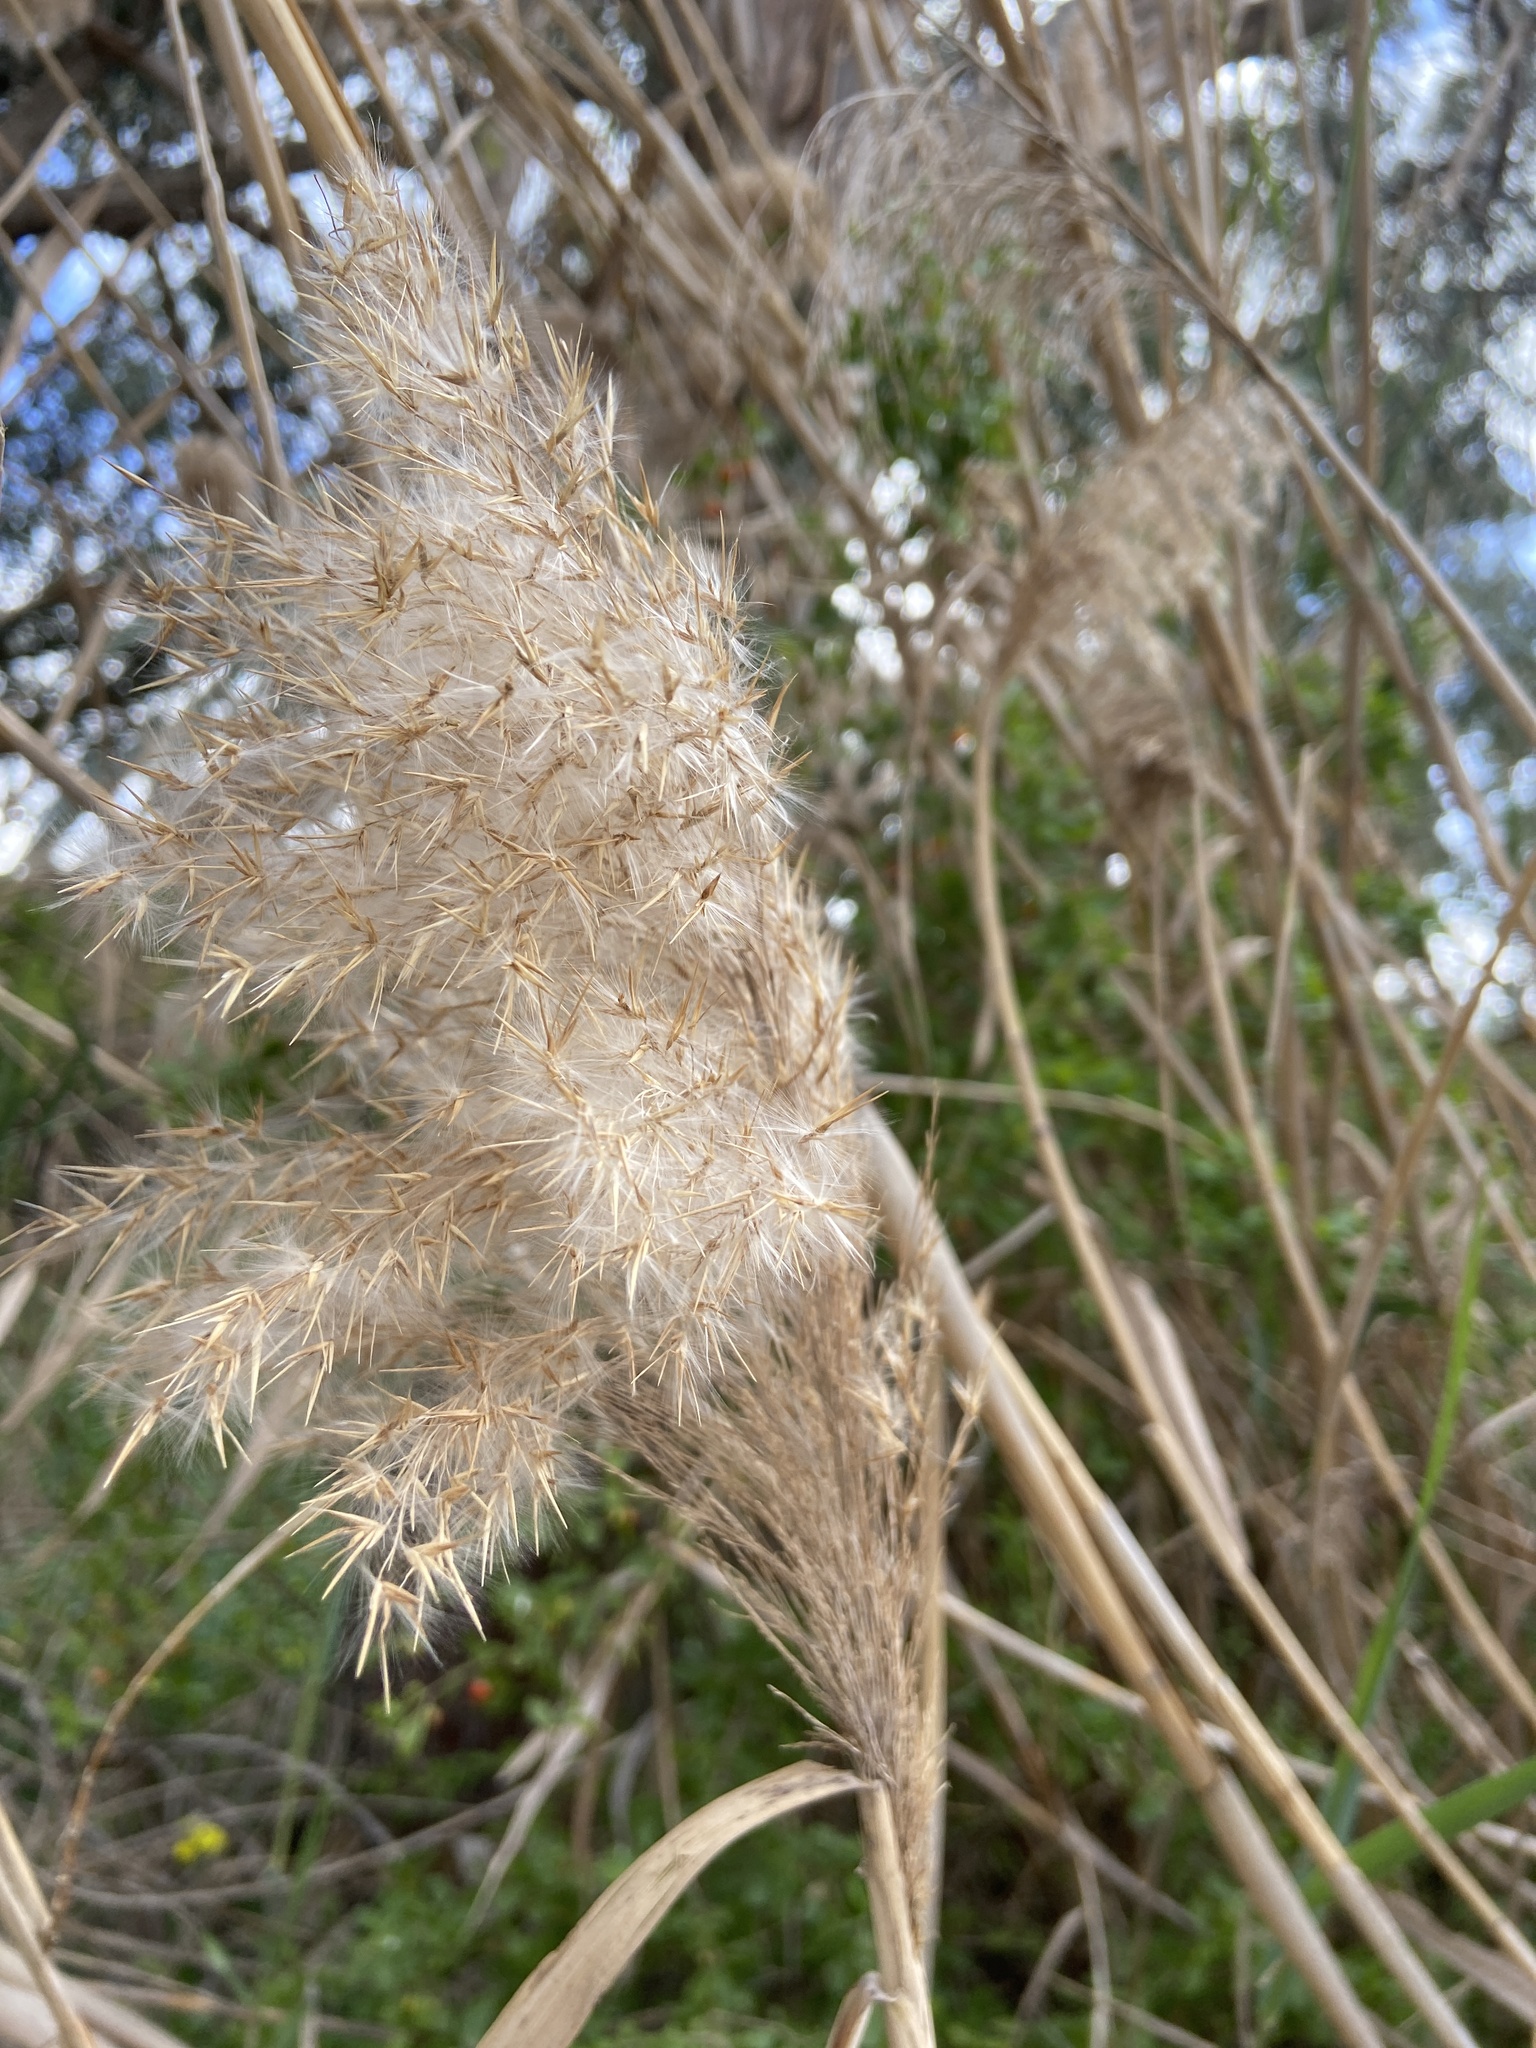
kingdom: Plantae
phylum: Tracheophyta
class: Liliopsida
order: Poales
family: Poaceae
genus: Phragmites
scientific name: Phragmites australis
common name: Common reed
